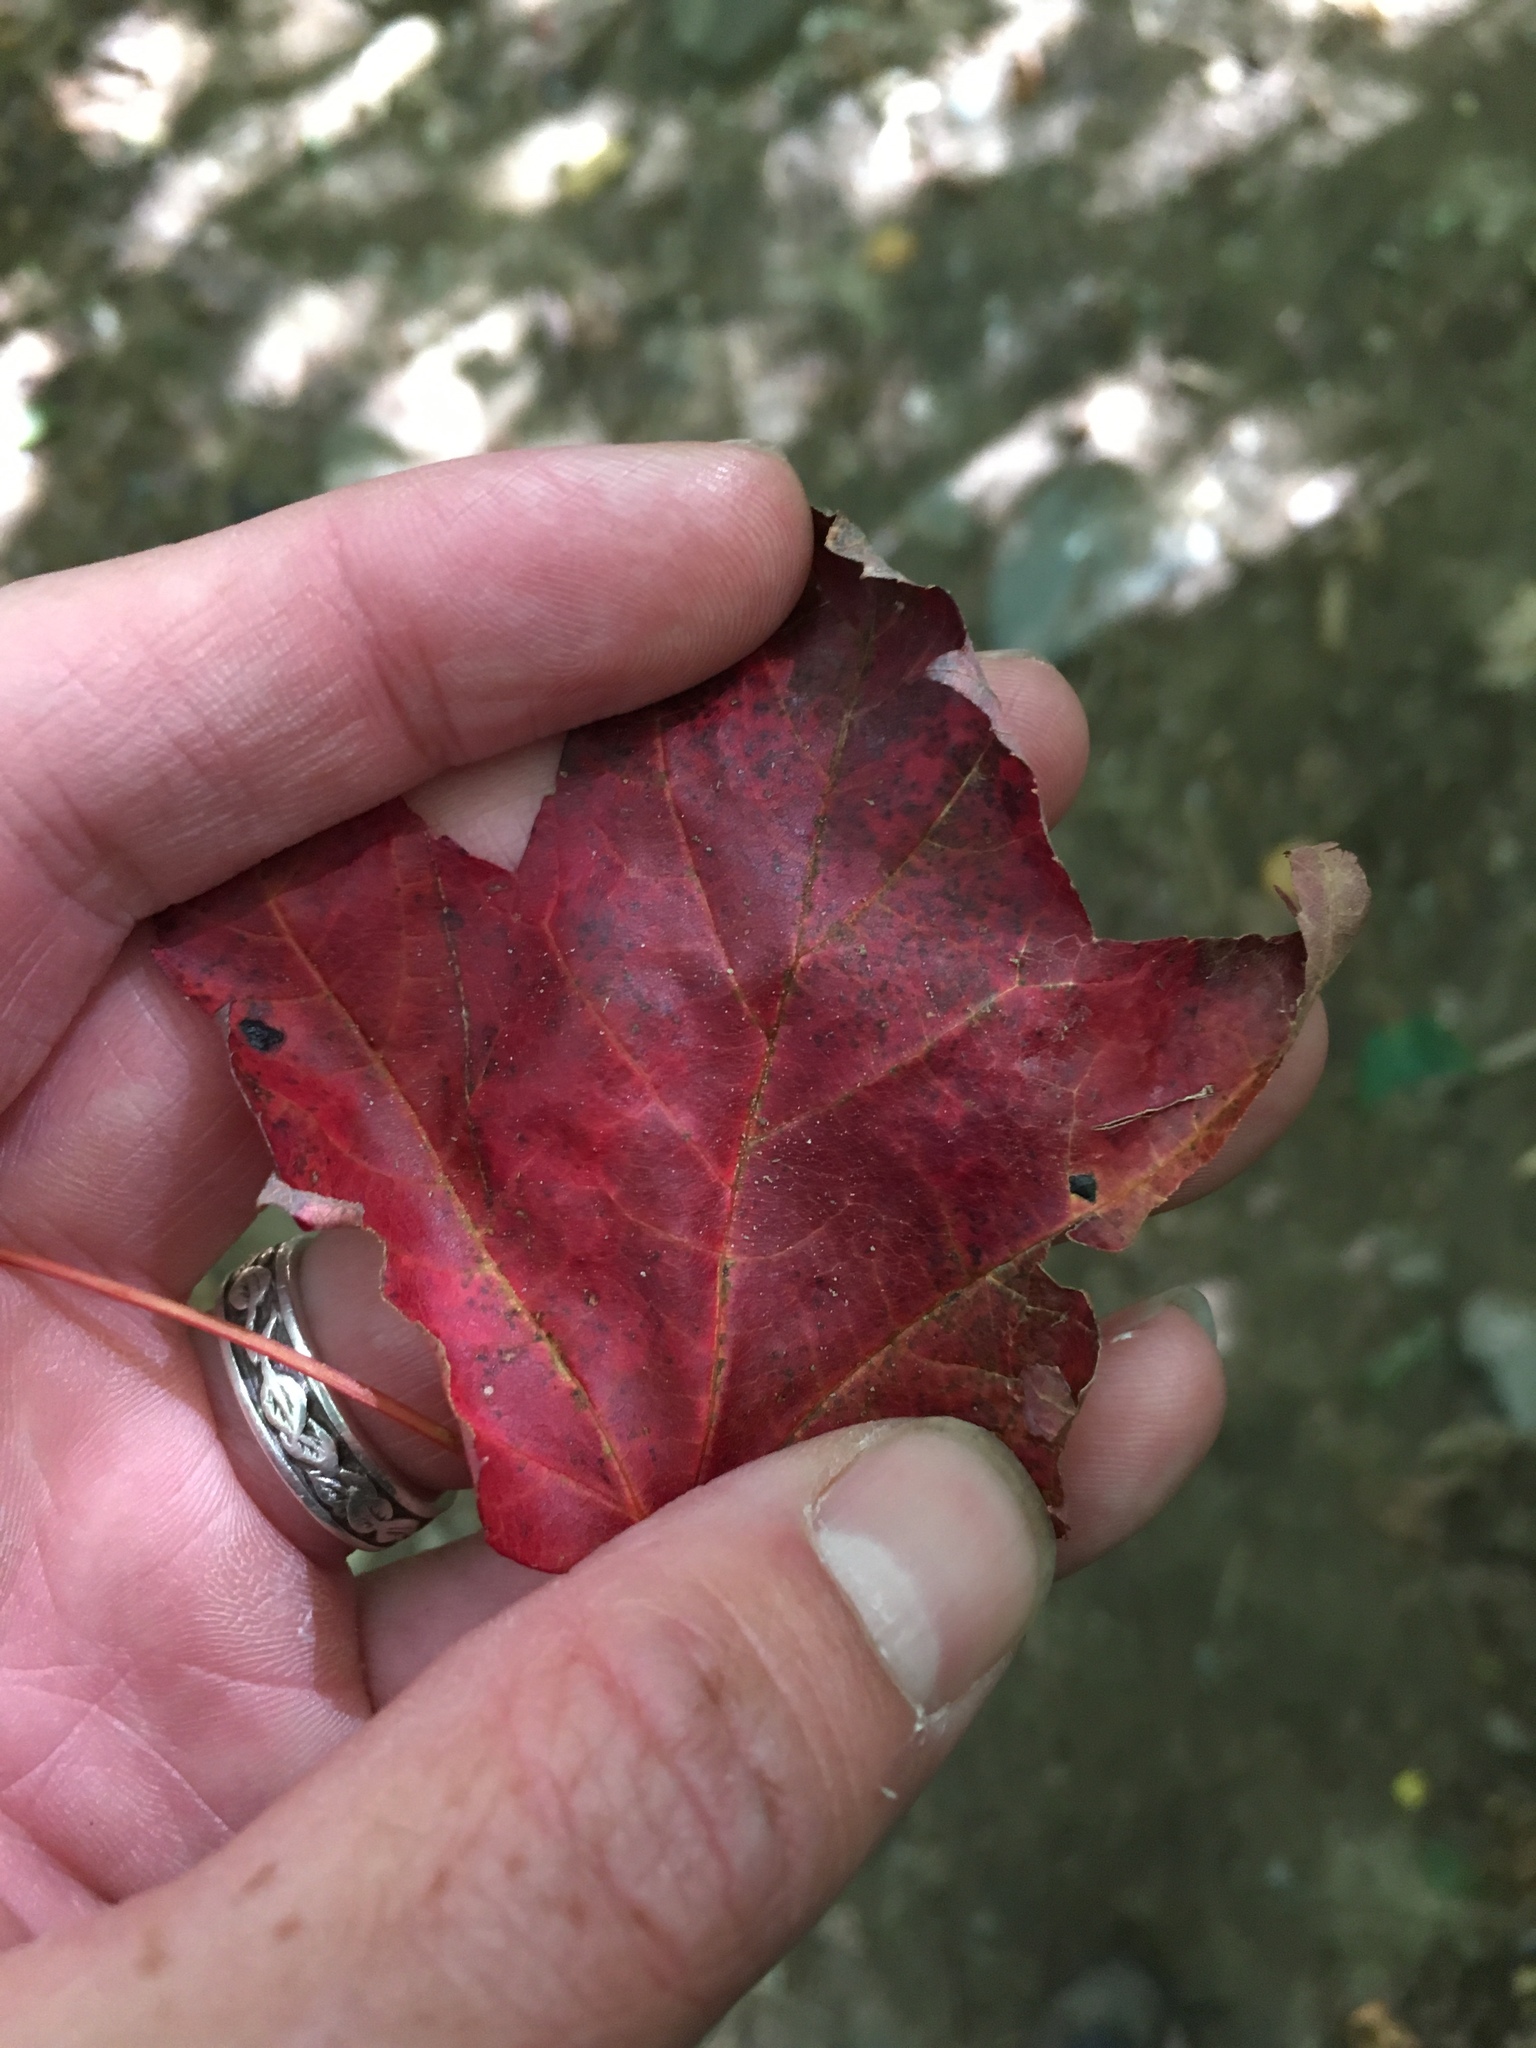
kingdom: Plantae
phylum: Tracheophyta
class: Magnoliopsida
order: Sapindales
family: Sapindaceae
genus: Acer
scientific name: Acer rubrum
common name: Red maple
